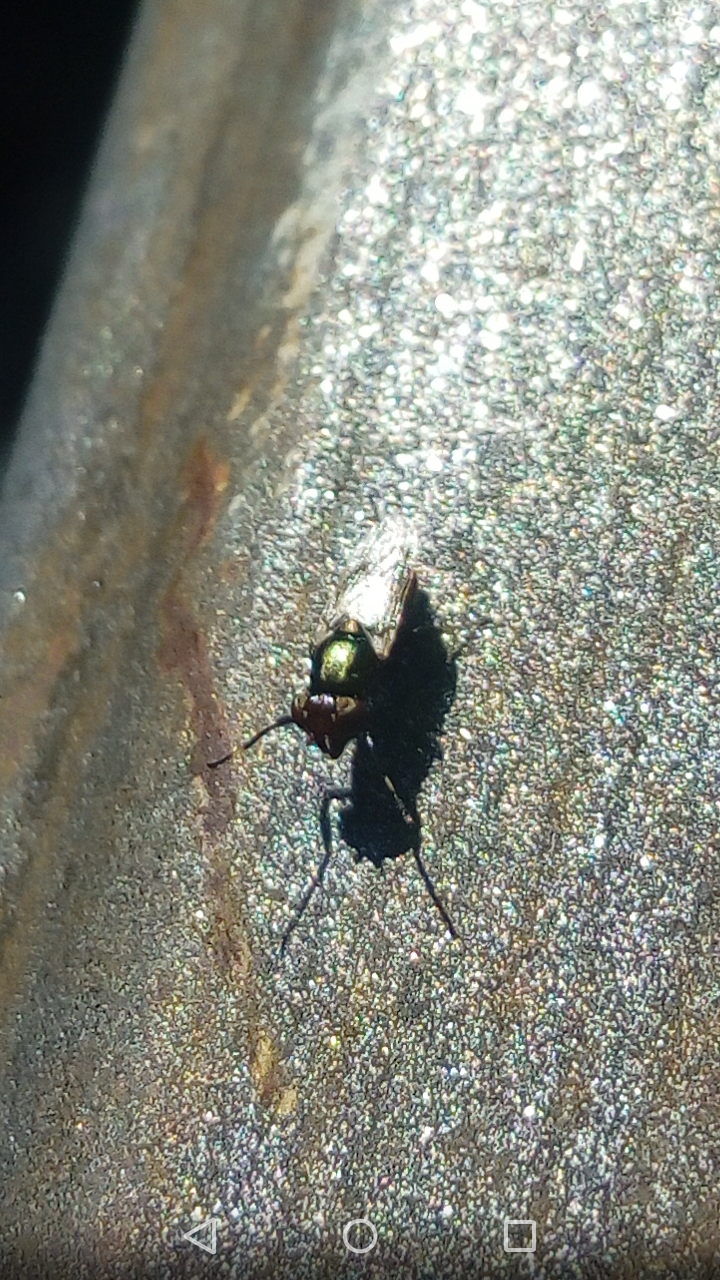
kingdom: Animalia
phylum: Arthropoda
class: Insecta
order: Diptera
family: Ulidiidae
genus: Physiphora
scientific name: Physiphora alceae
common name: Picture-winged fly
